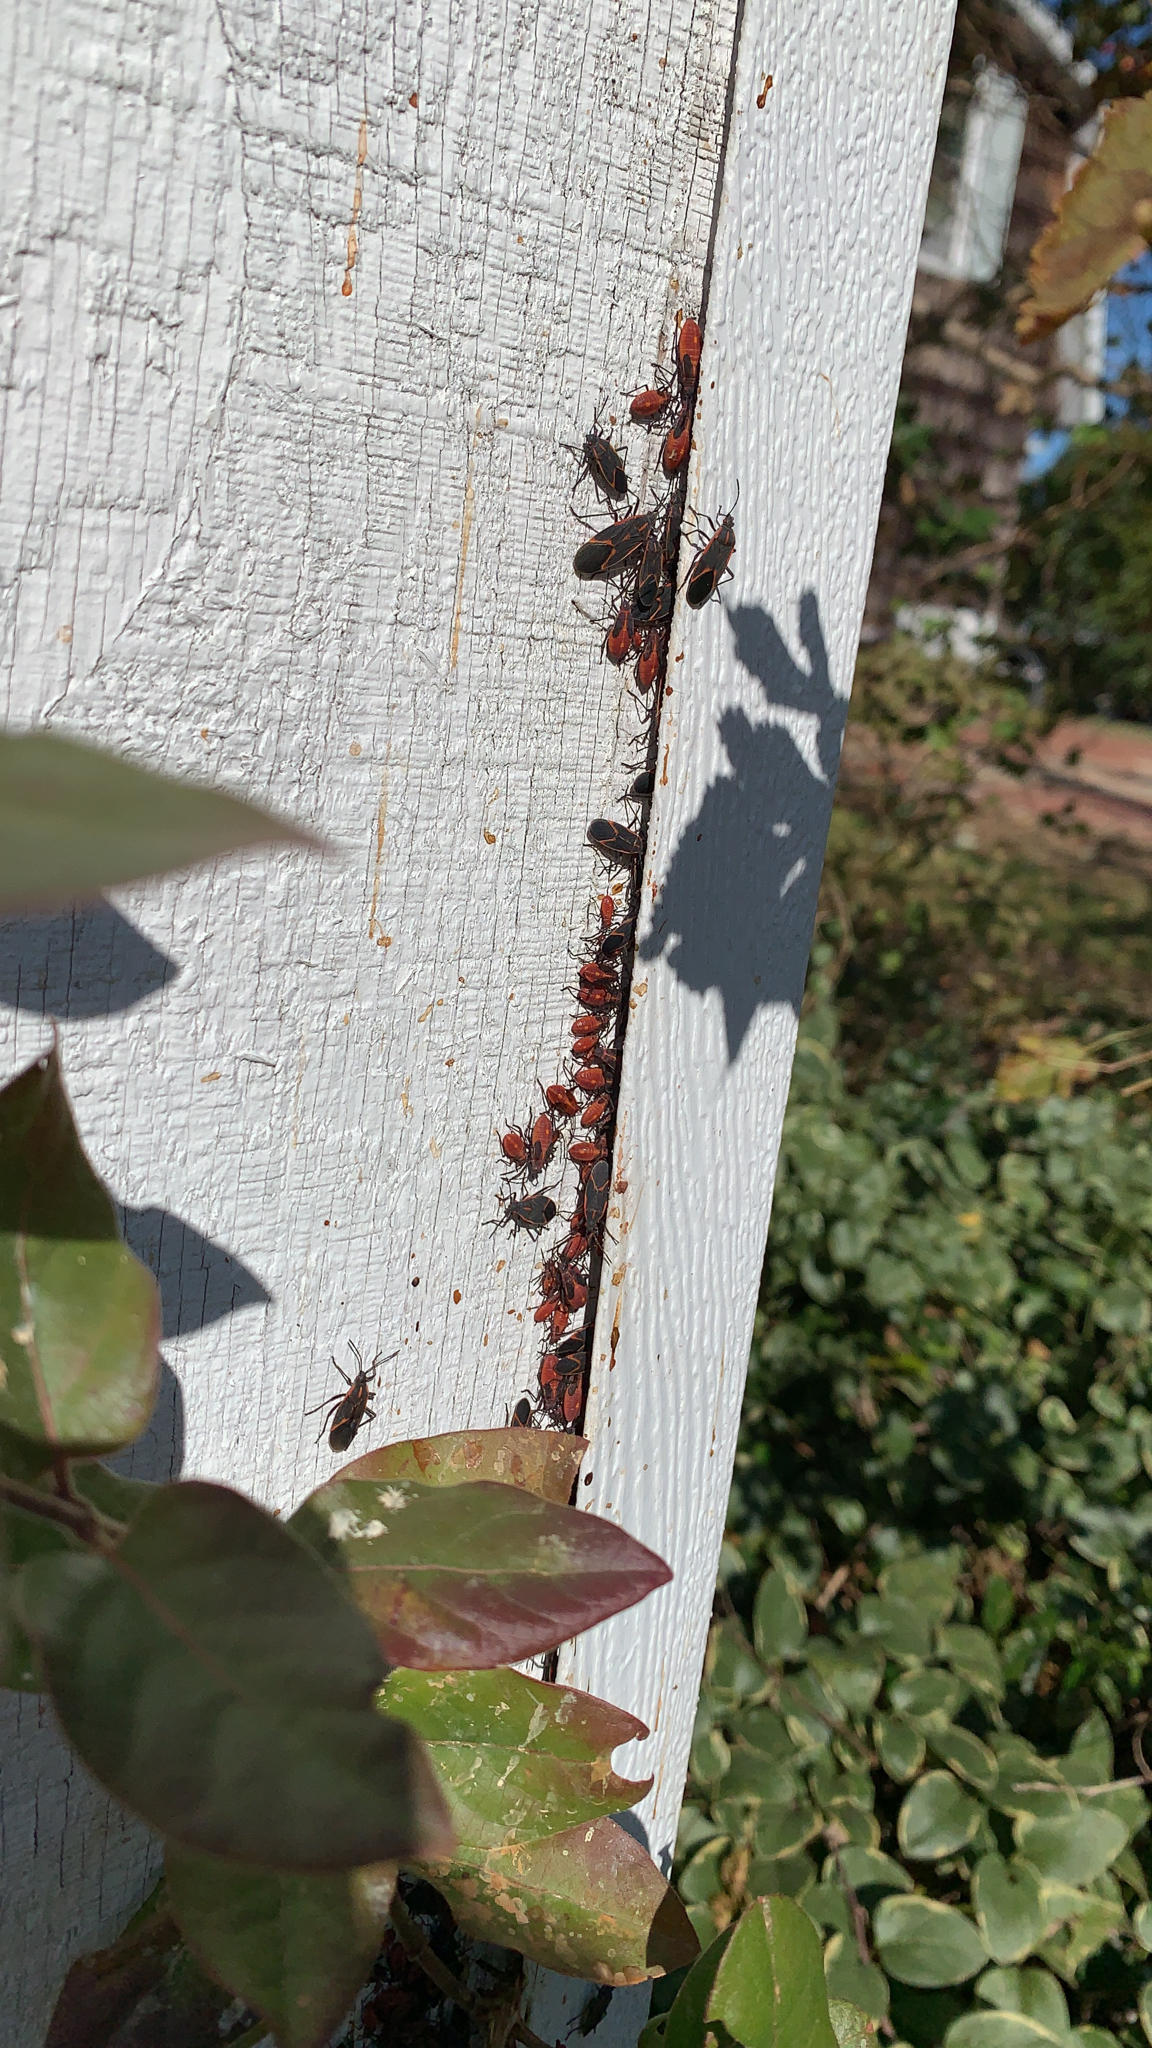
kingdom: Animalia
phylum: Arthropoda
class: Insecta
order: Hemiptera
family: Rhopalidae
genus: Boisea
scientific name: Boisea trivittata
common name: Boxelder bug
